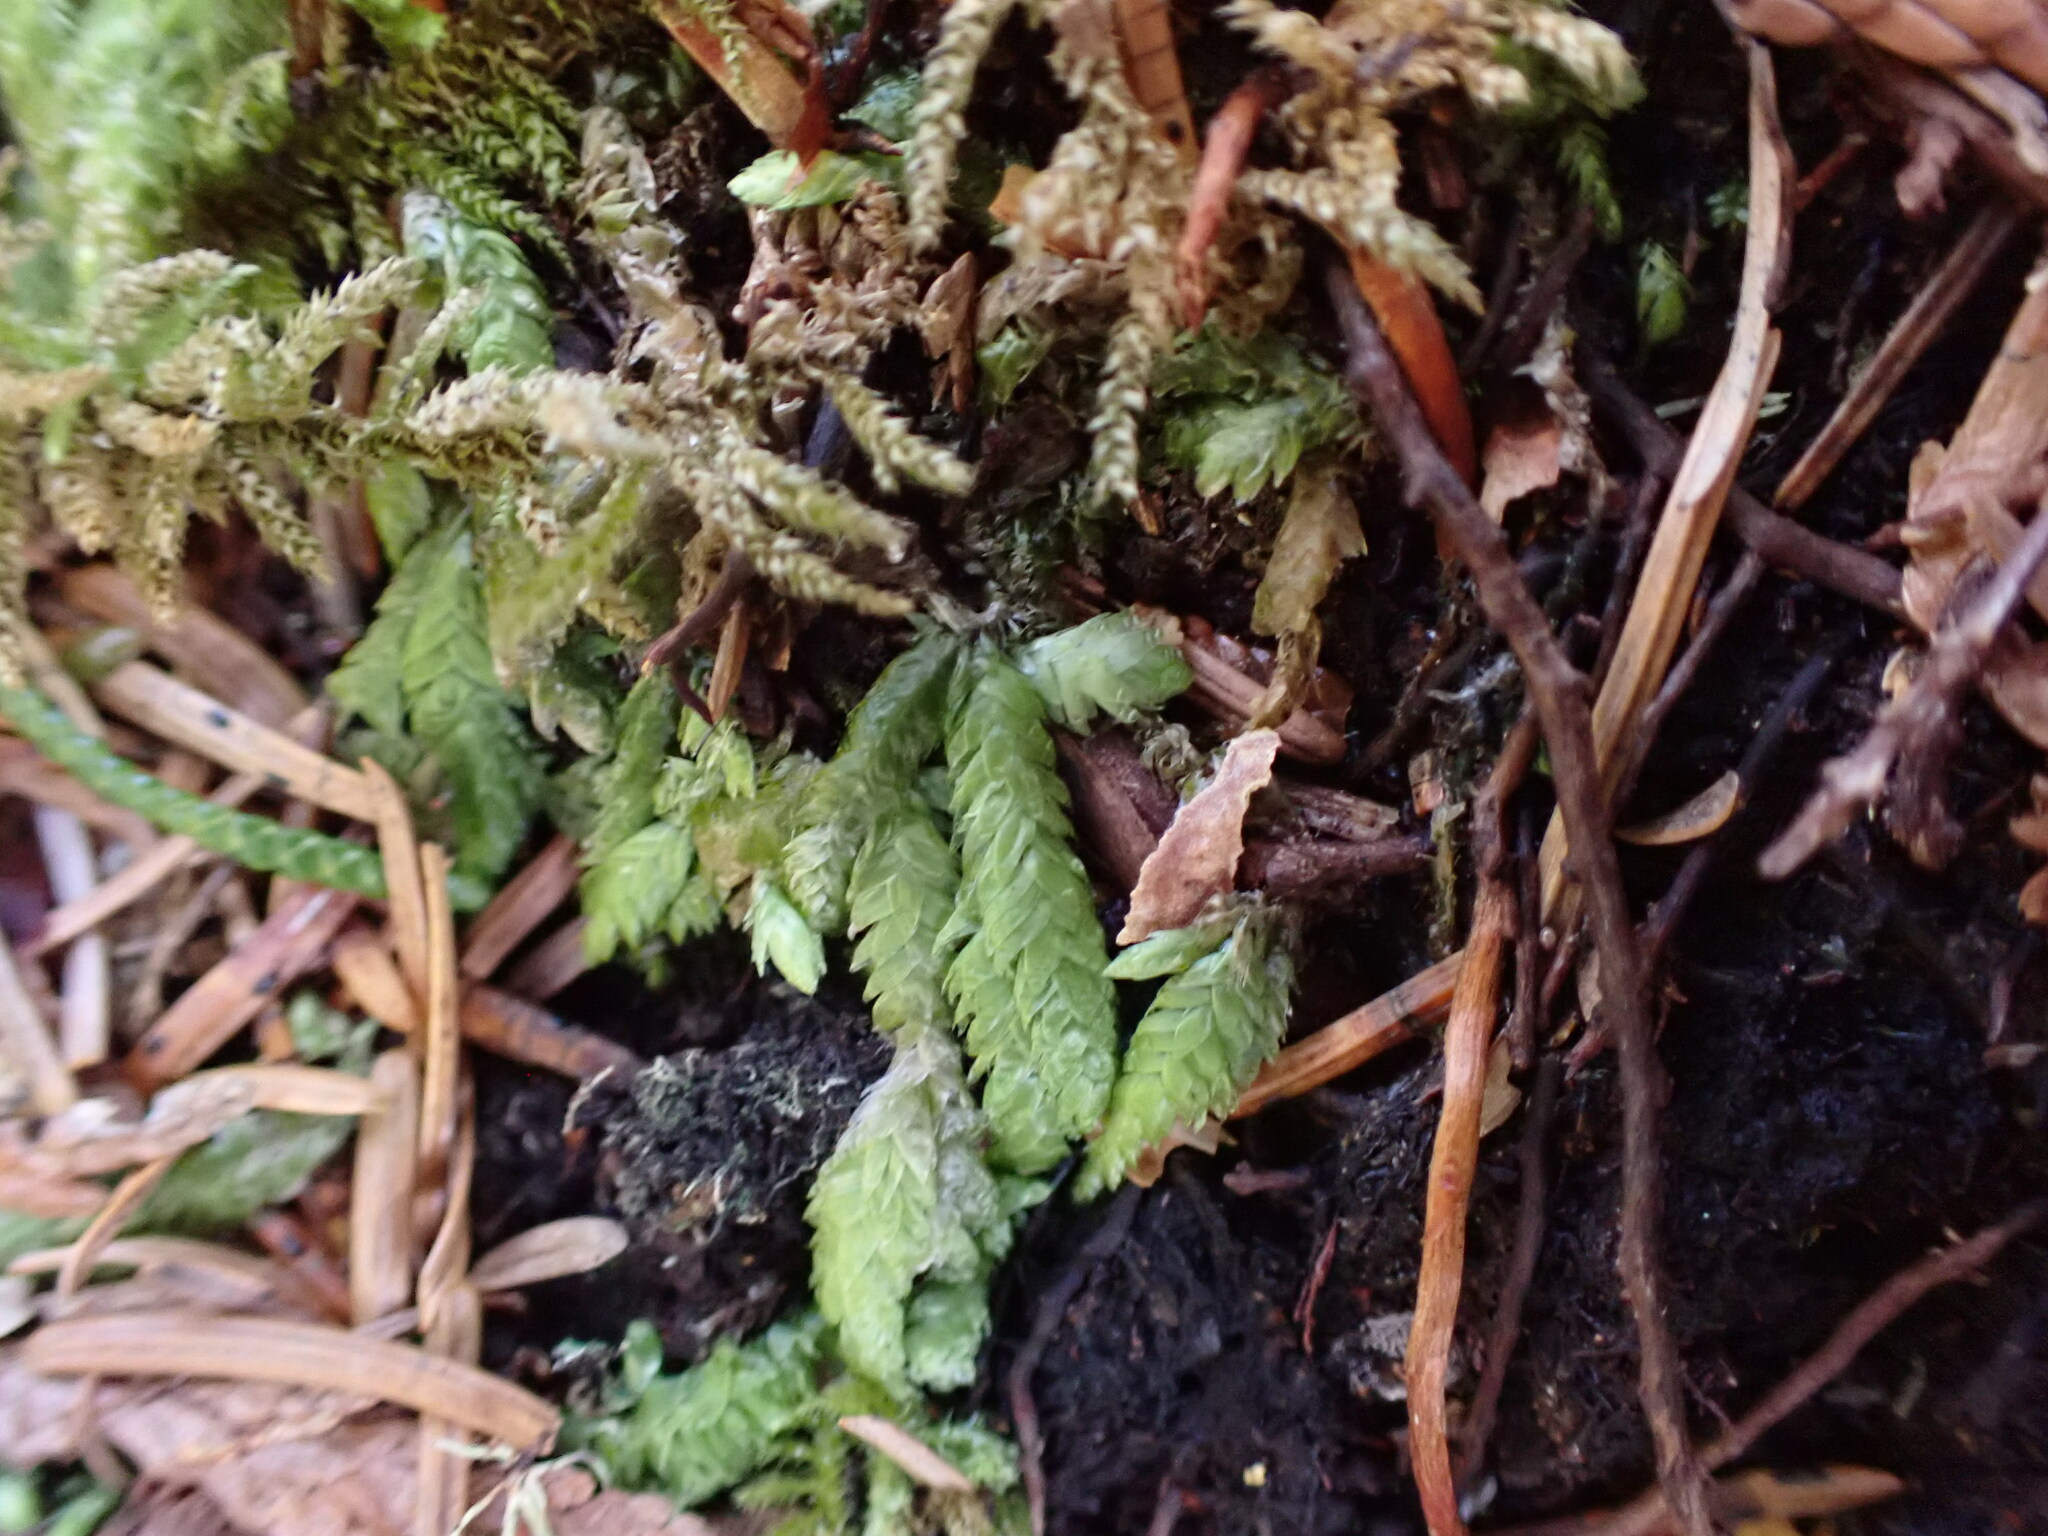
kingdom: Plantae
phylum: Bryophyta
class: Bryopsida
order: Hypnales
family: Plagiotheciaceae
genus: Plagiothecium
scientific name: Plagiothecium undulatum
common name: Waved silk-moss
